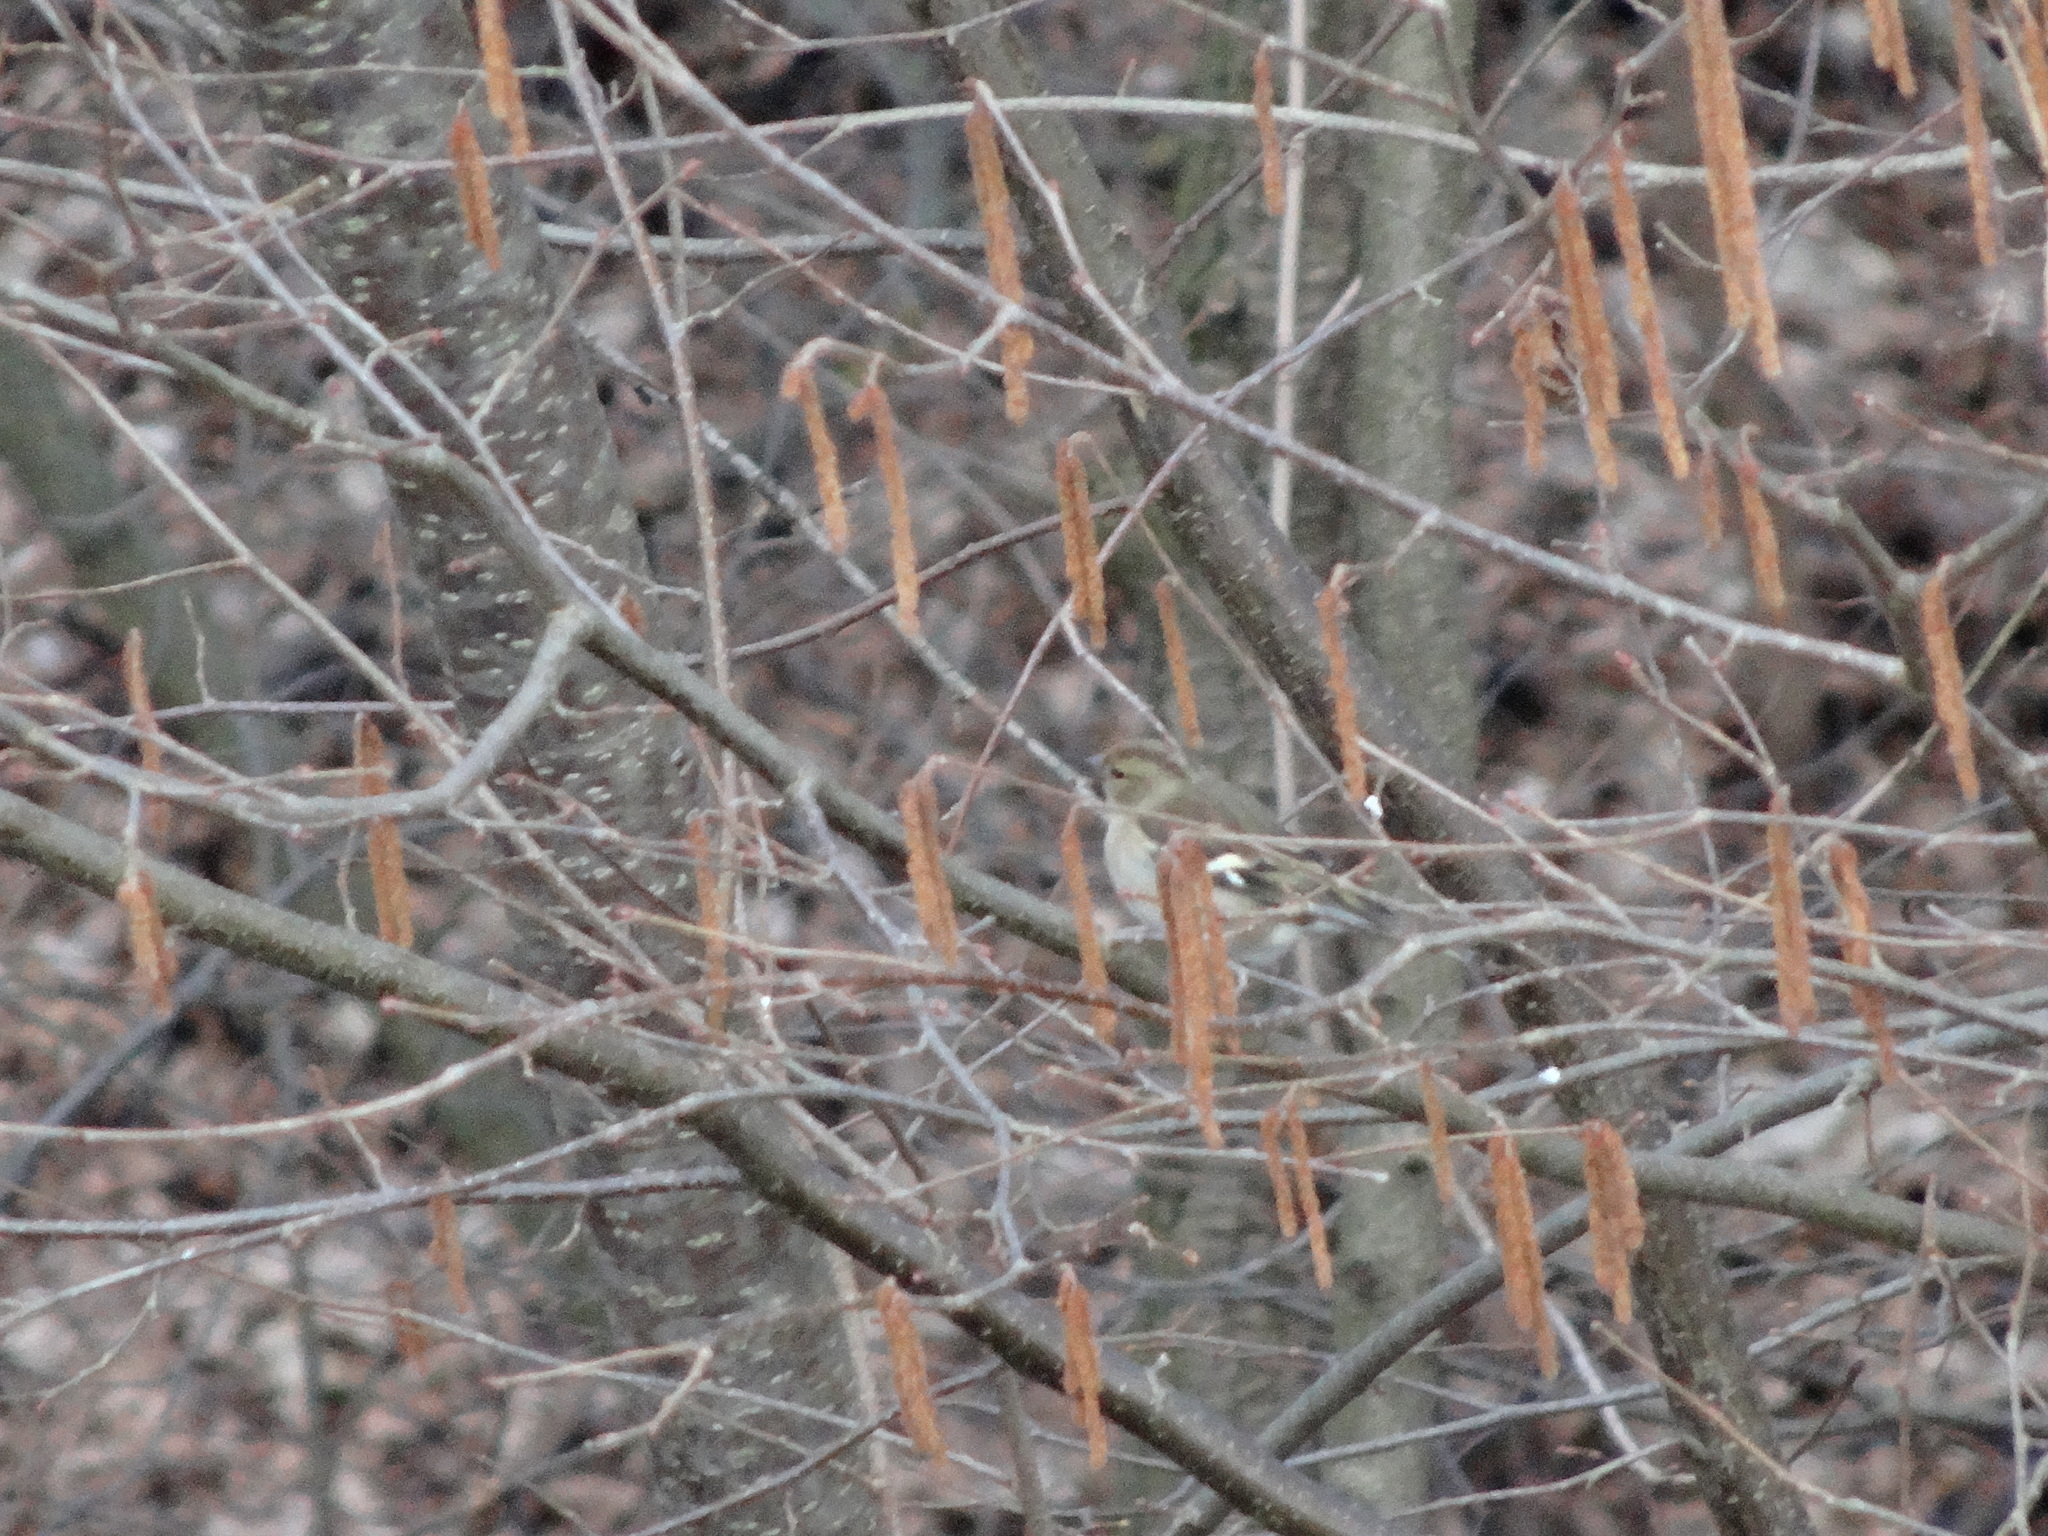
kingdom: Animalia
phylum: Chordata
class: Aves
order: Passeriformes
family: Fringillidae
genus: Fringilla
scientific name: Fringilla coelebs
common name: Common chaffinch
